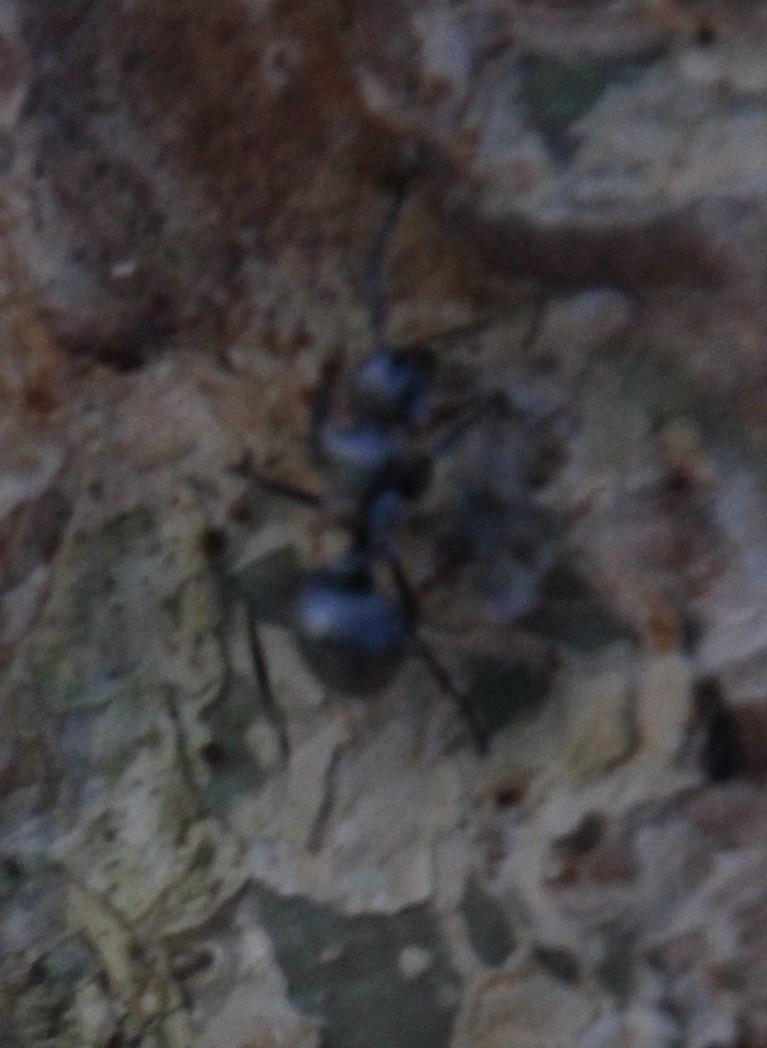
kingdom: Animalia
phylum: Arthropoda
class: Insecta
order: Hymenoptera
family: Formicidae
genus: Polyrhachis
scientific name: Polyrhachis schlueteri
